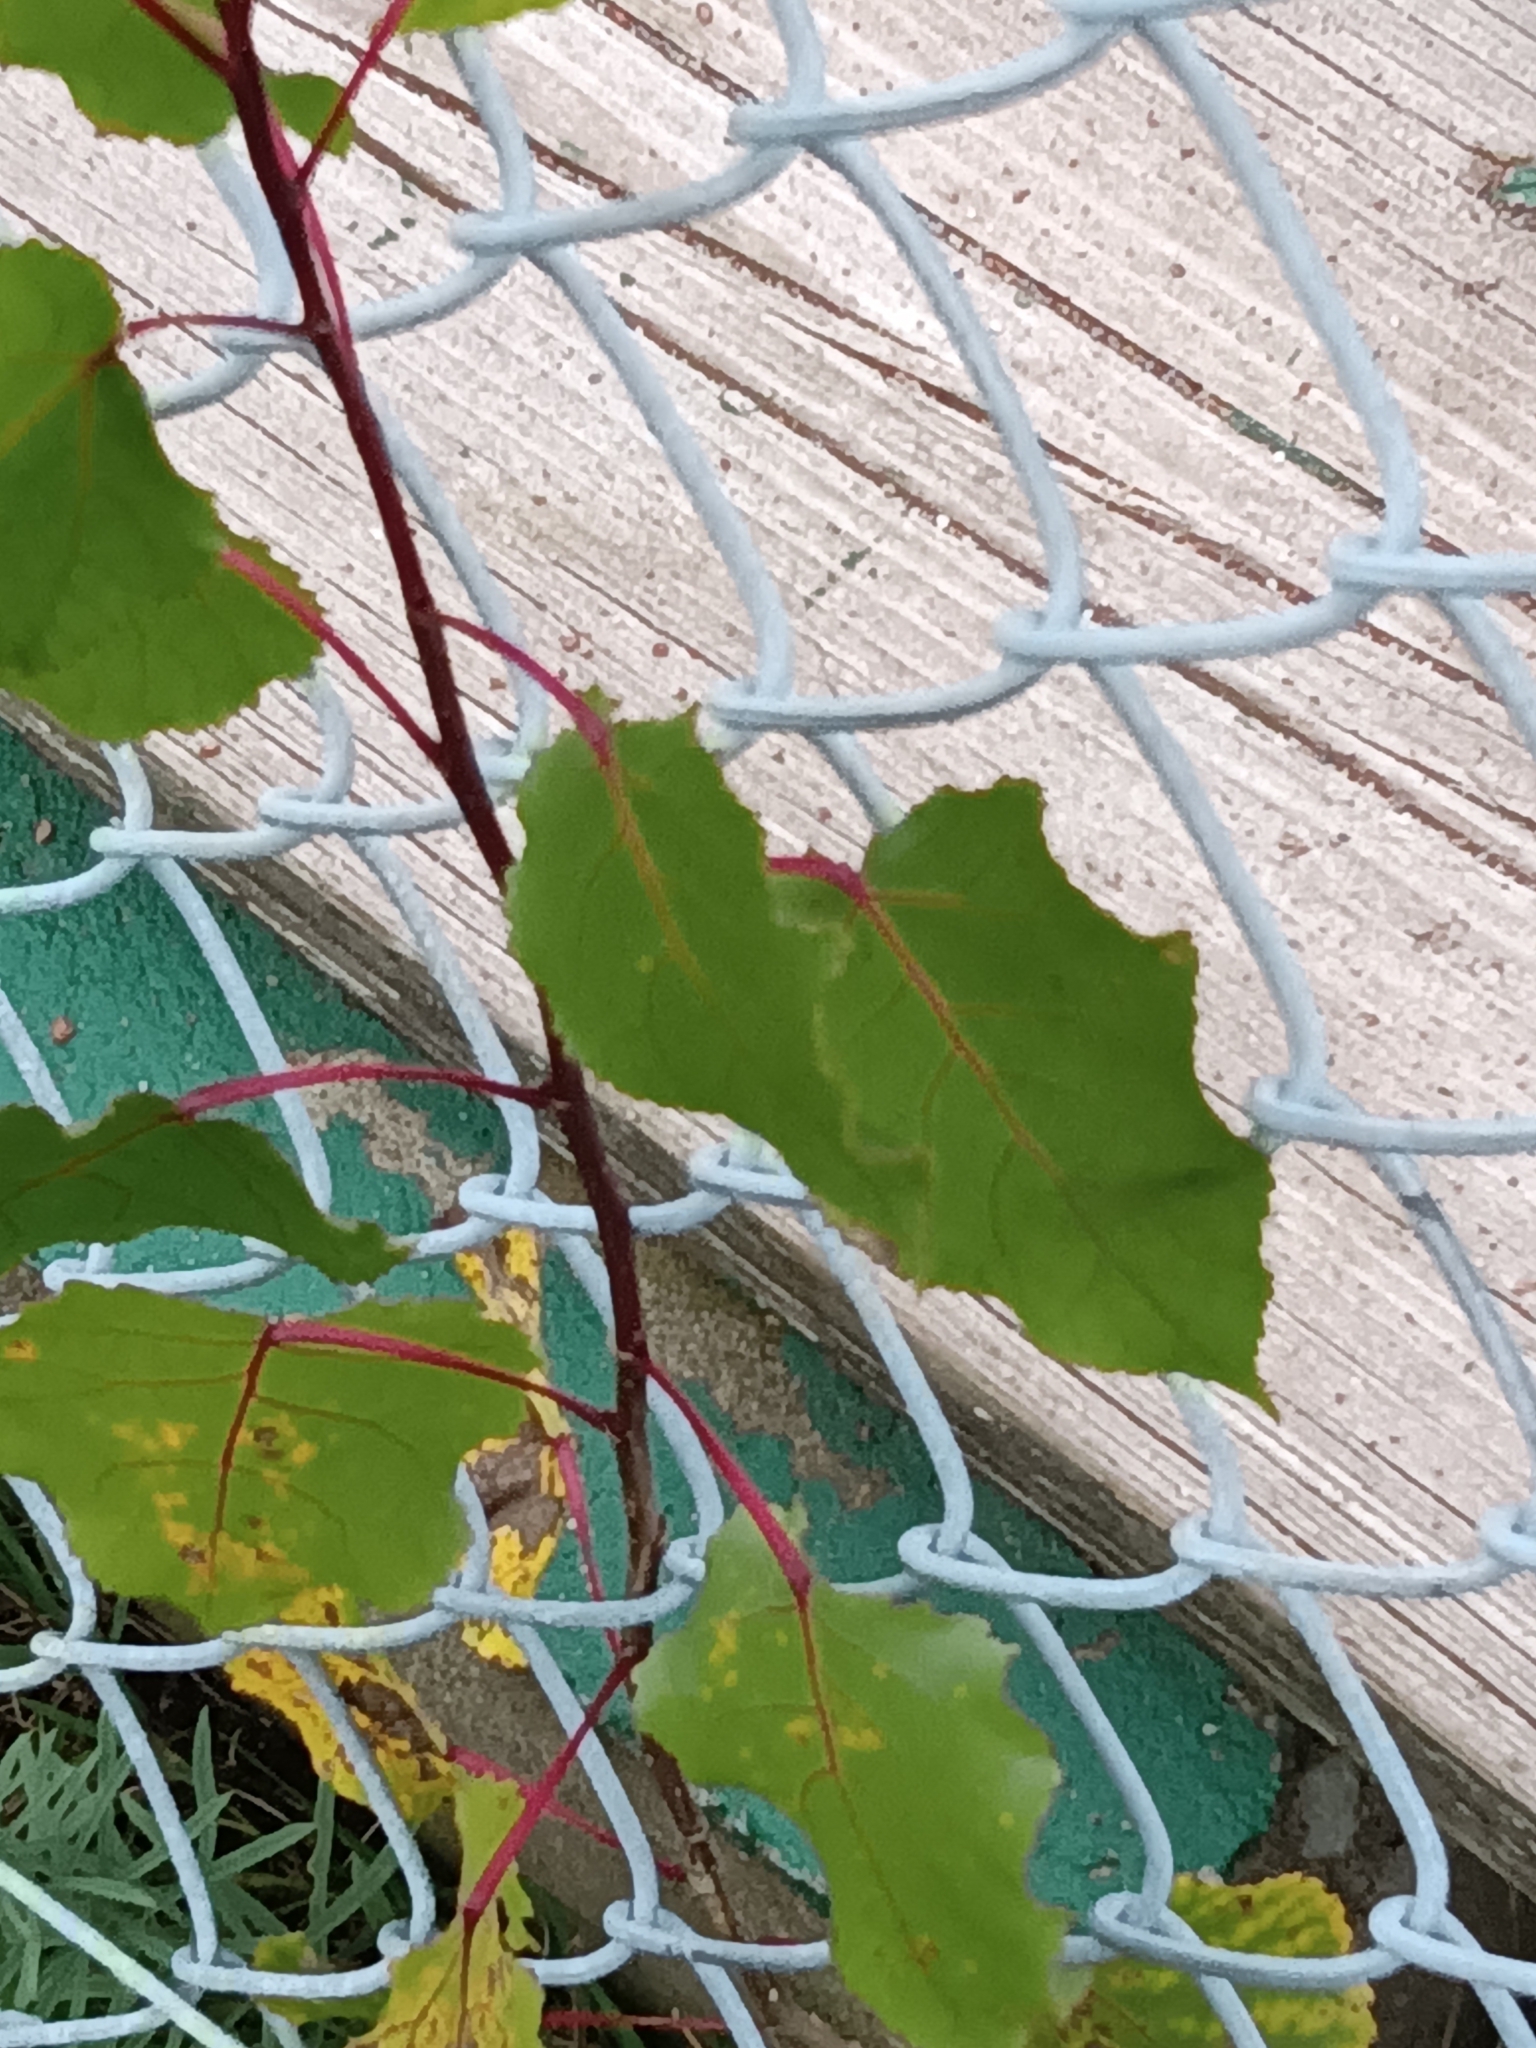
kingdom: Plantae
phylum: Tracheophyta
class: Magnoliopsida
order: Malpighiales
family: Salicaceae
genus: Populus
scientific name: Populus deltoides
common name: Eastern cottonwood
